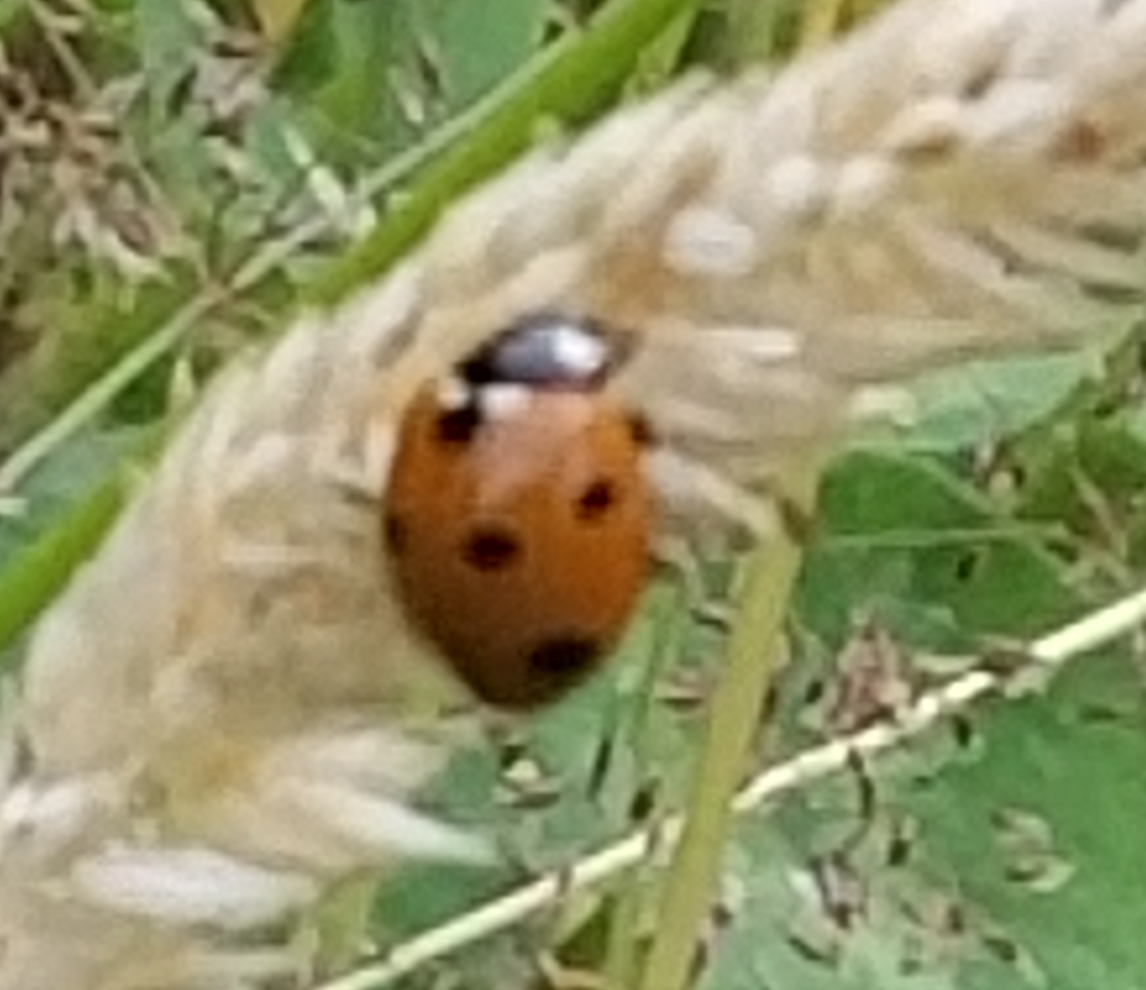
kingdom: Animalia
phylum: Arthropoda
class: Insecta
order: Coleoptera
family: Coccinellidae
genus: Coccinella
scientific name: Coccinella septempunctata
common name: Sevenspotted lady beetle
